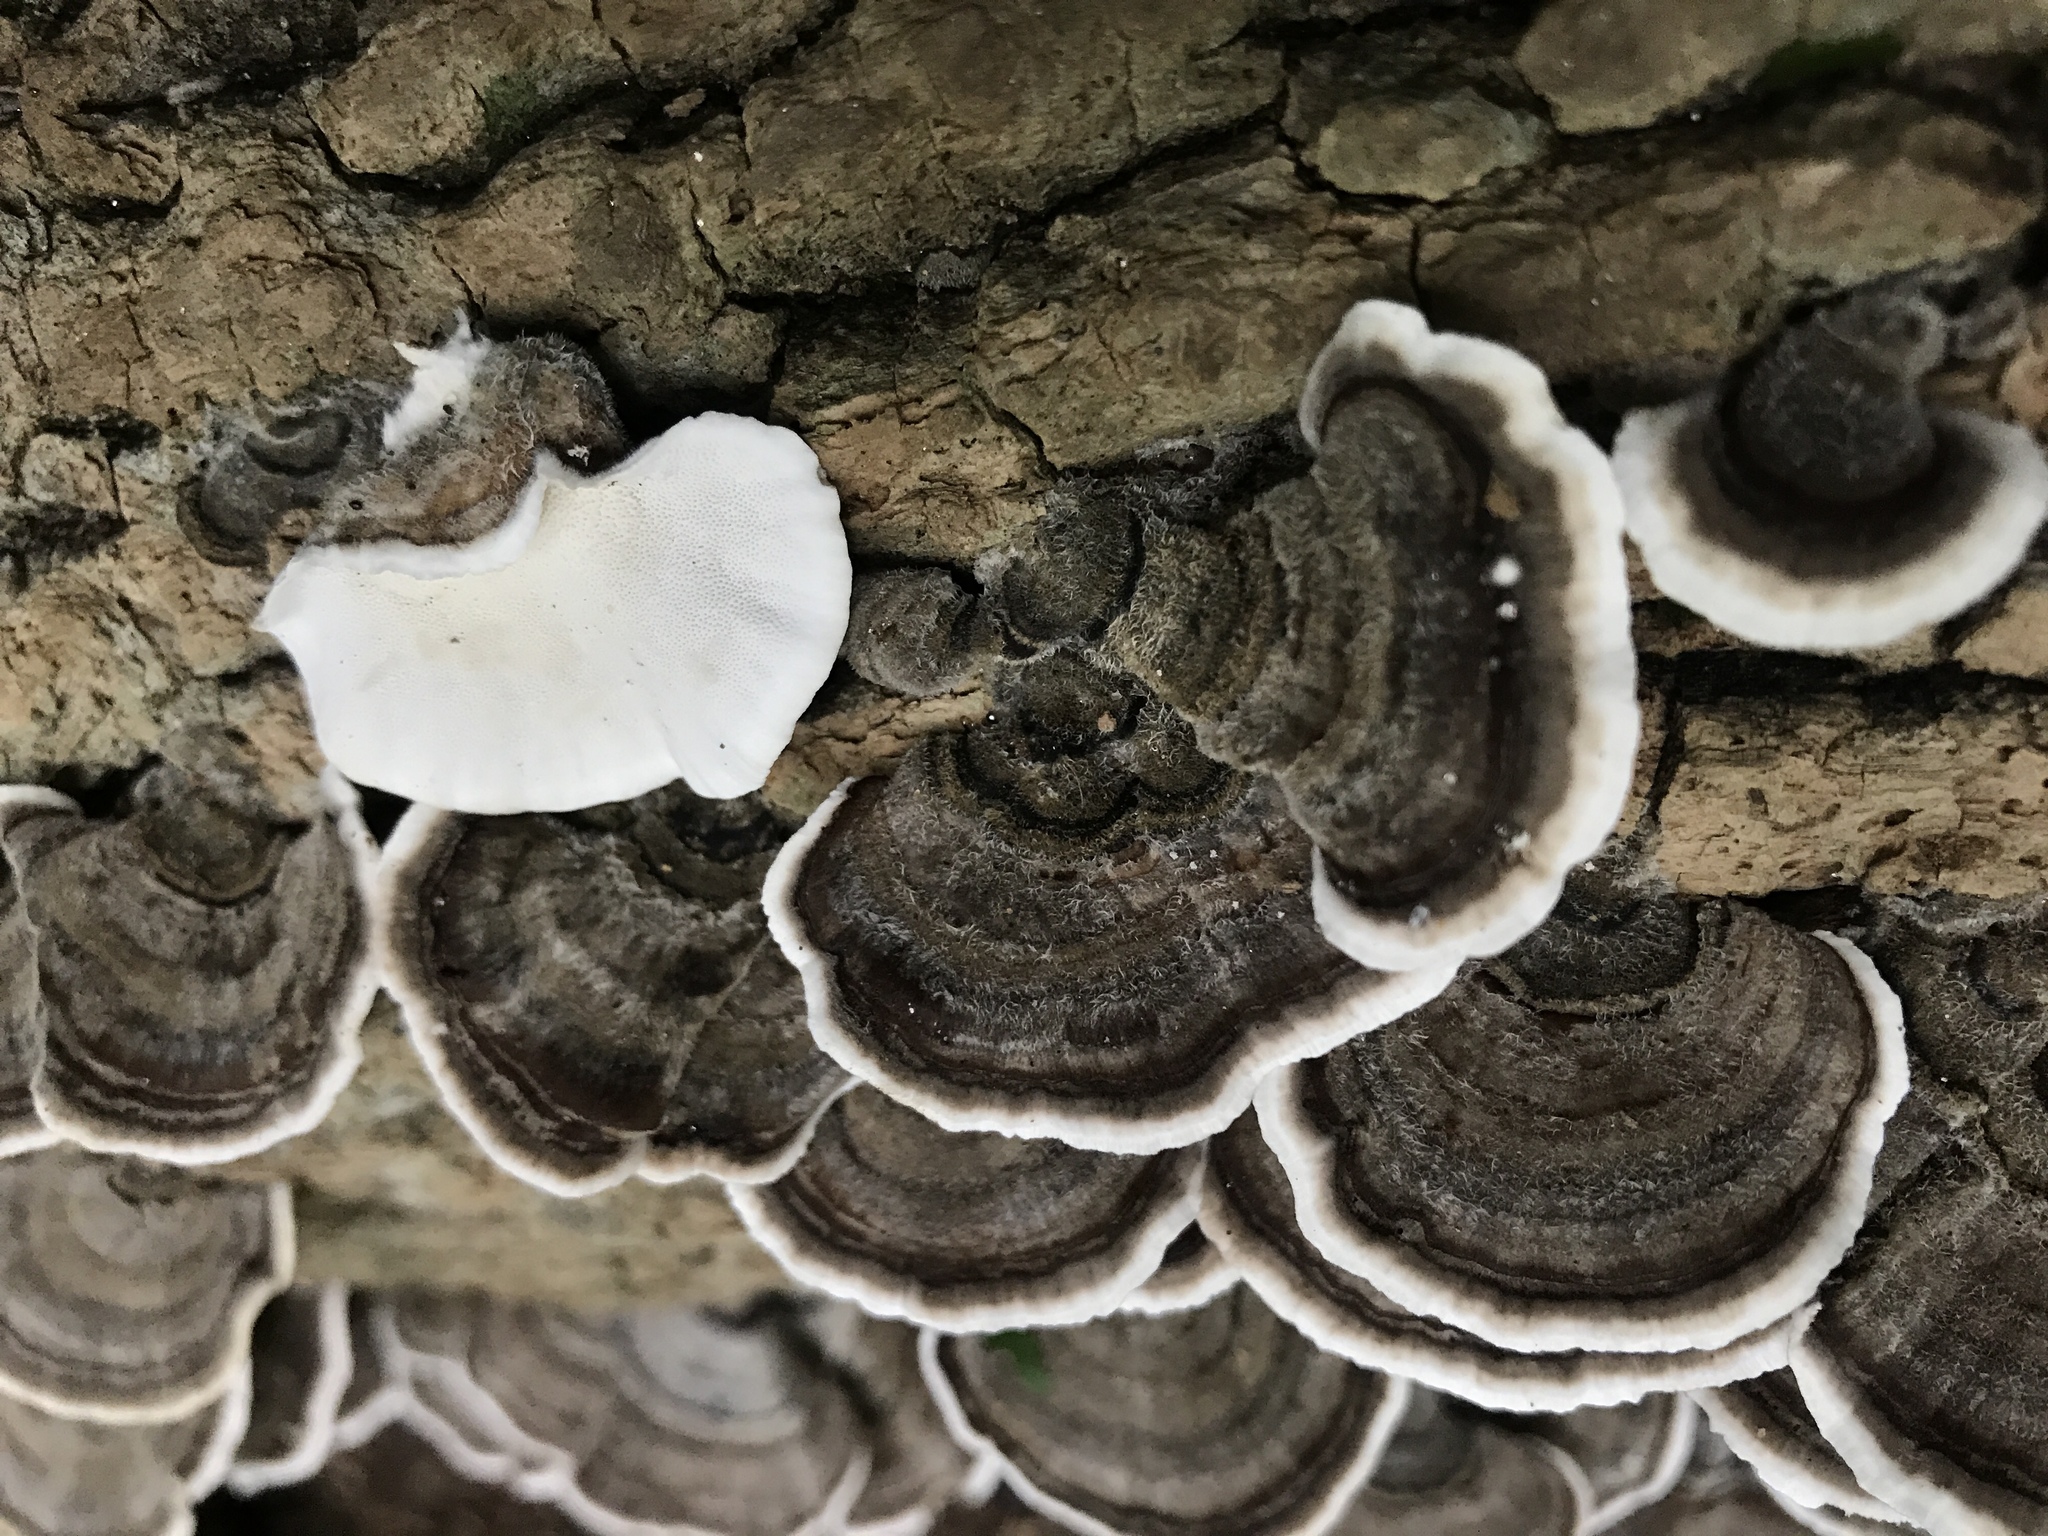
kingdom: Fungi
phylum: Basidiomycota
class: Agaricomycetes
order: Polyporales
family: Polyporaceae
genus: Trametes
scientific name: Trametes versicolor
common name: Turkeytail
